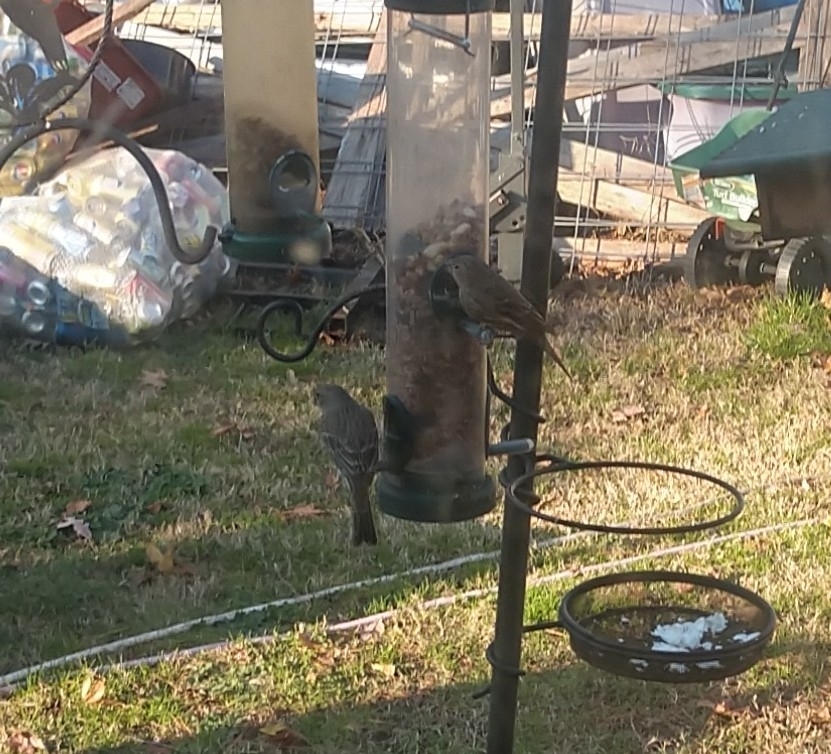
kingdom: Animalia
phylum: Chordata
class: Aves
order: Passeriformes
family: Fringillidae
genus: Haemorhous
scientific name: Haemorhous mexicanus
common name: House finch
